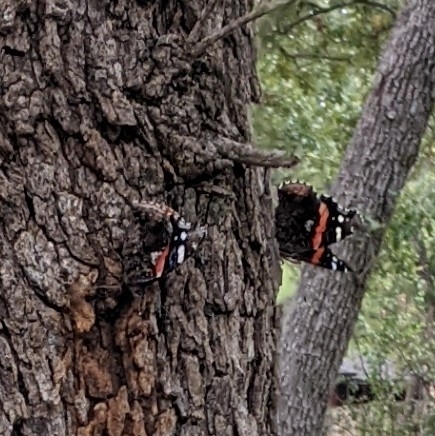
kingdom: Animalia
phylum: Arthropoda
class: Insecta
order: Lepidoptera
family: Nymphalidae
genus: Vanessa
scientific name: Vanessa atalanta
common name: Red admiral
